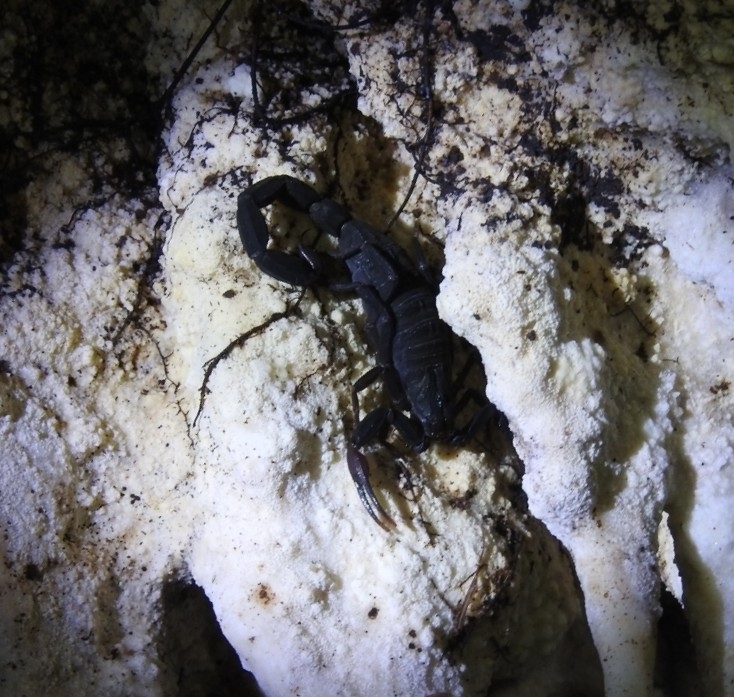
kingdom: Animalia
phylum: Arthropoda
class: Arachnida
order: Scorpiones
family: Buthidae
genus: Centruroides
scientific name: Centruroides gracilis
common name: Scorpions
